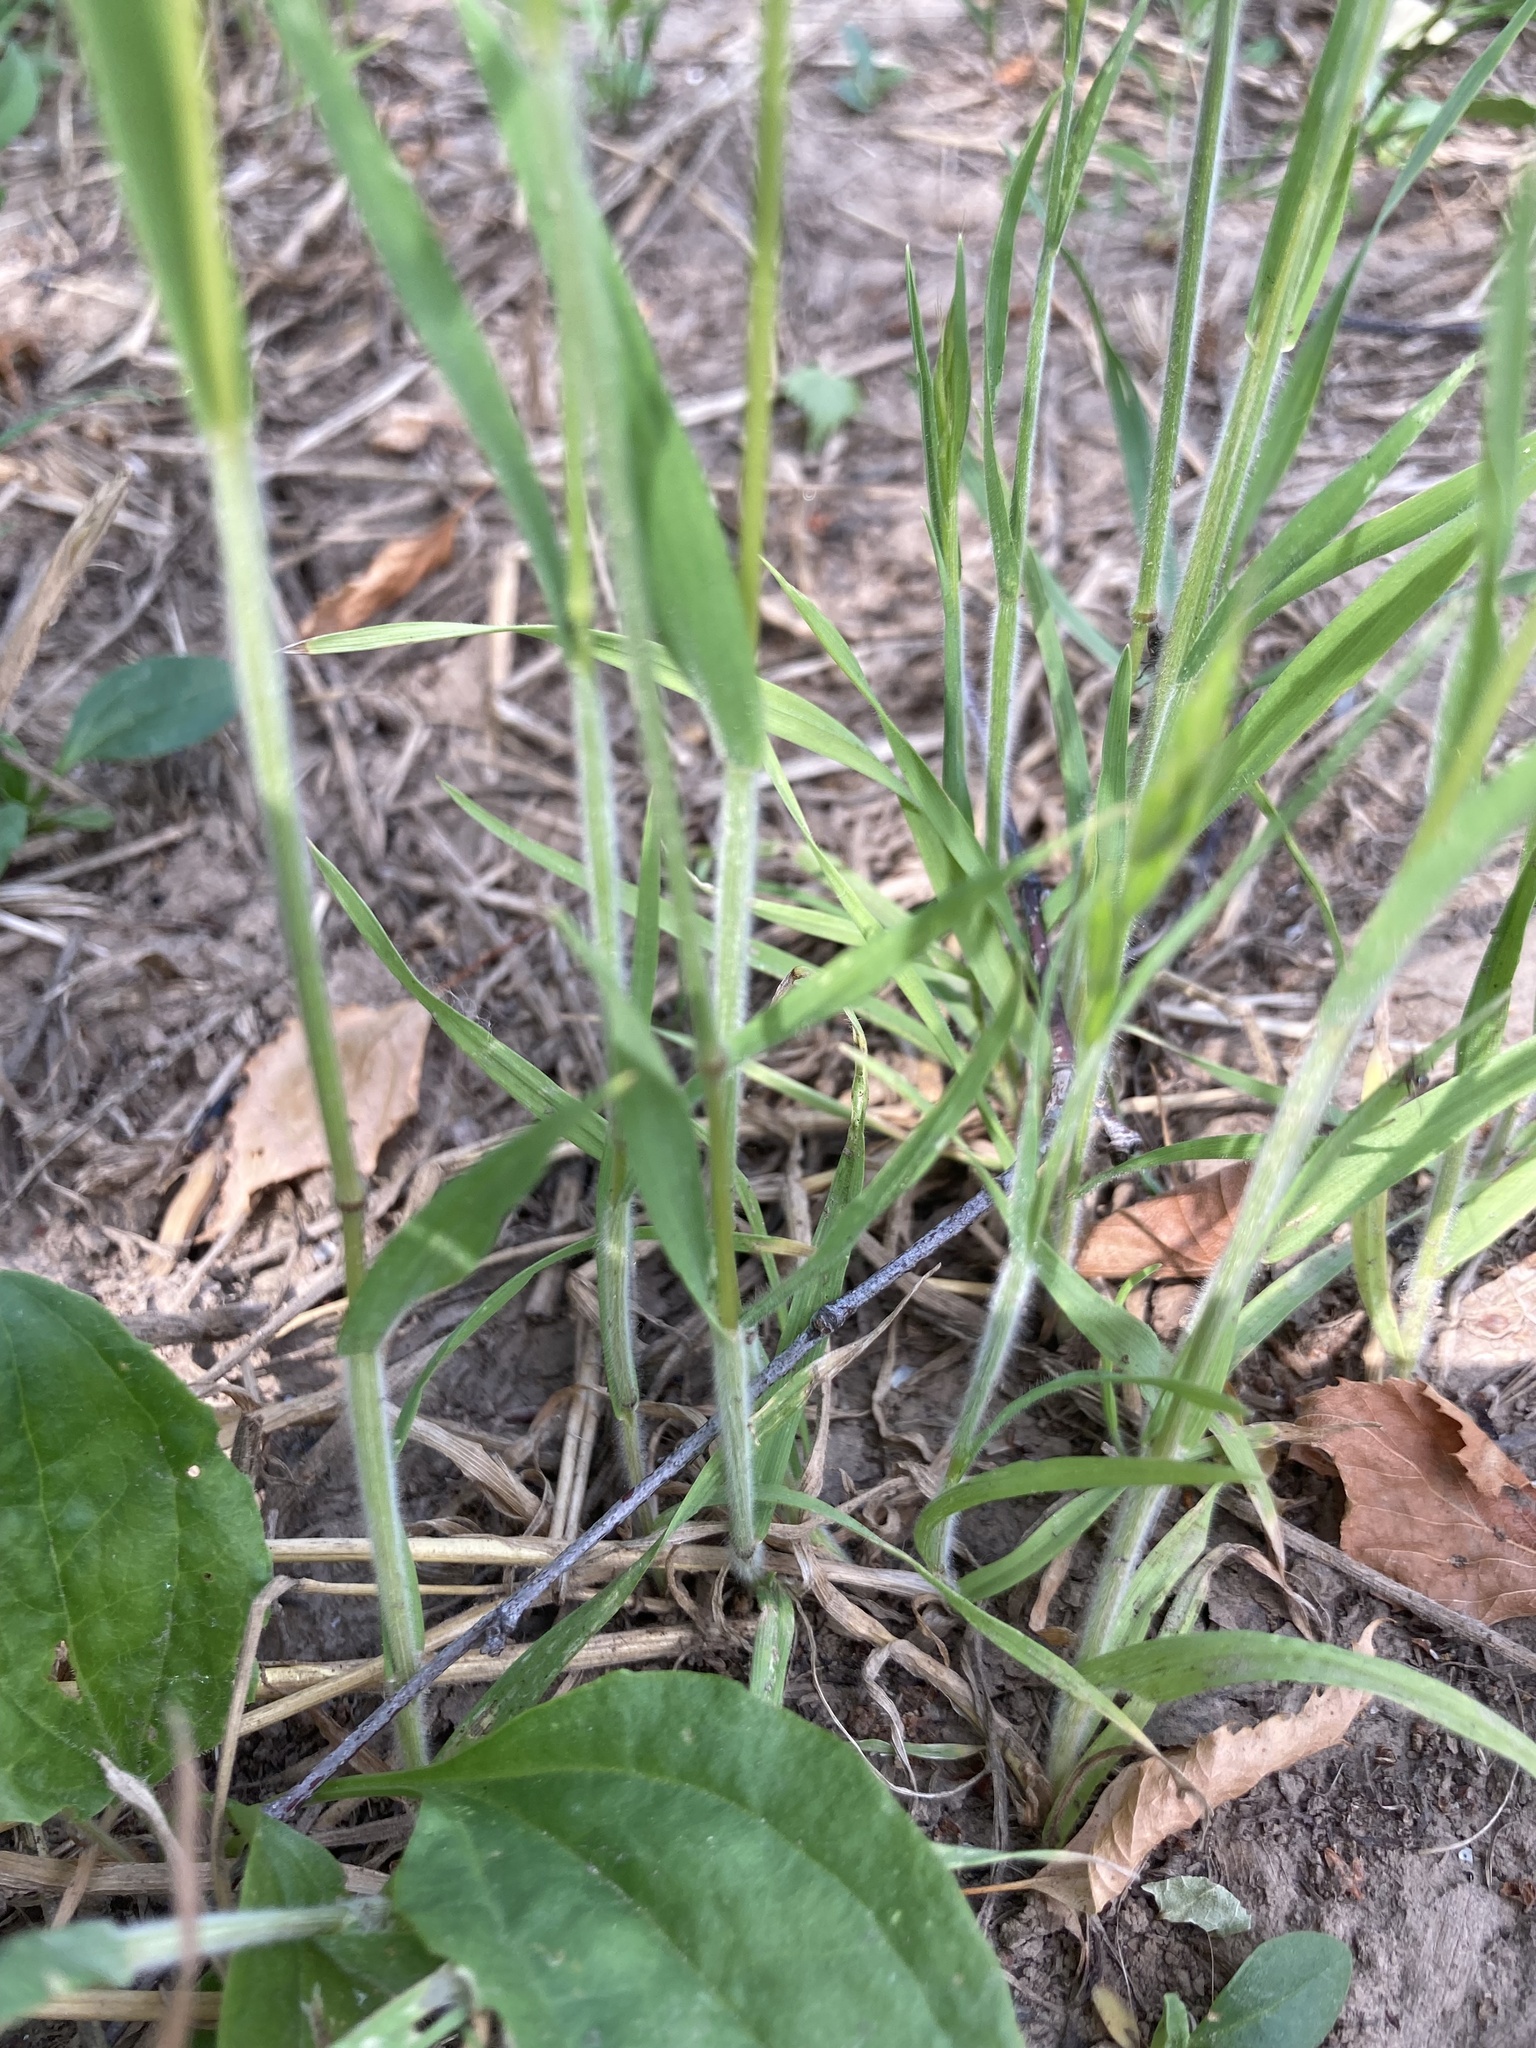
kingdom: Plantae
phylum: Tracheophyta
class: Liliopsida
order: Poales
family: Poaceae
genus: Bromus
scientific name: Bromus hordeaceus
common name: Soft brome
